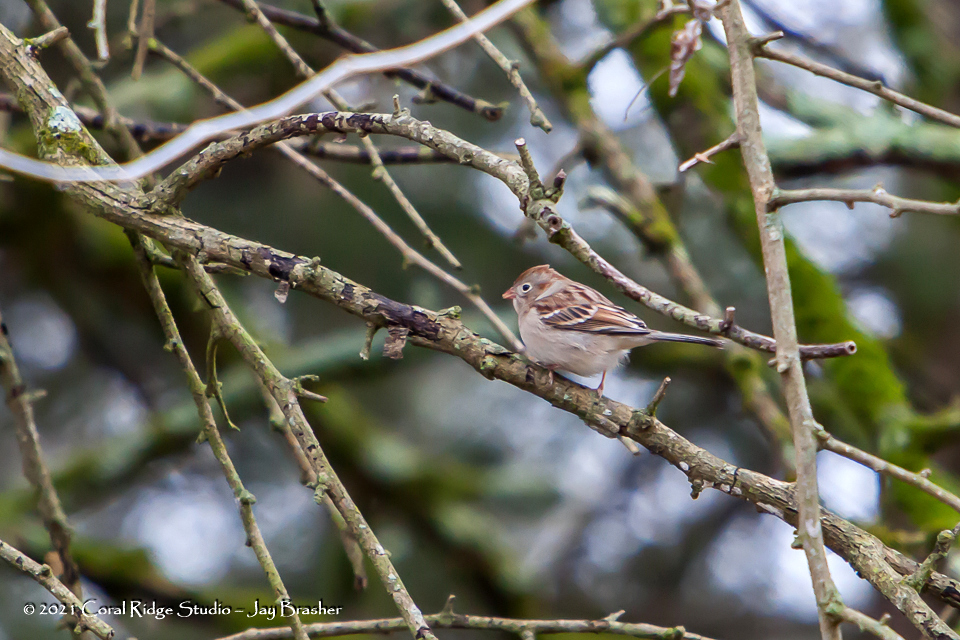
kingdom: Animalia
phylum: Chordata
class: Aves
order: Passeriformes
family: Passerellidae
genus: Spizella
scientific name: Spizella pusilla
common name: Field sparrow
